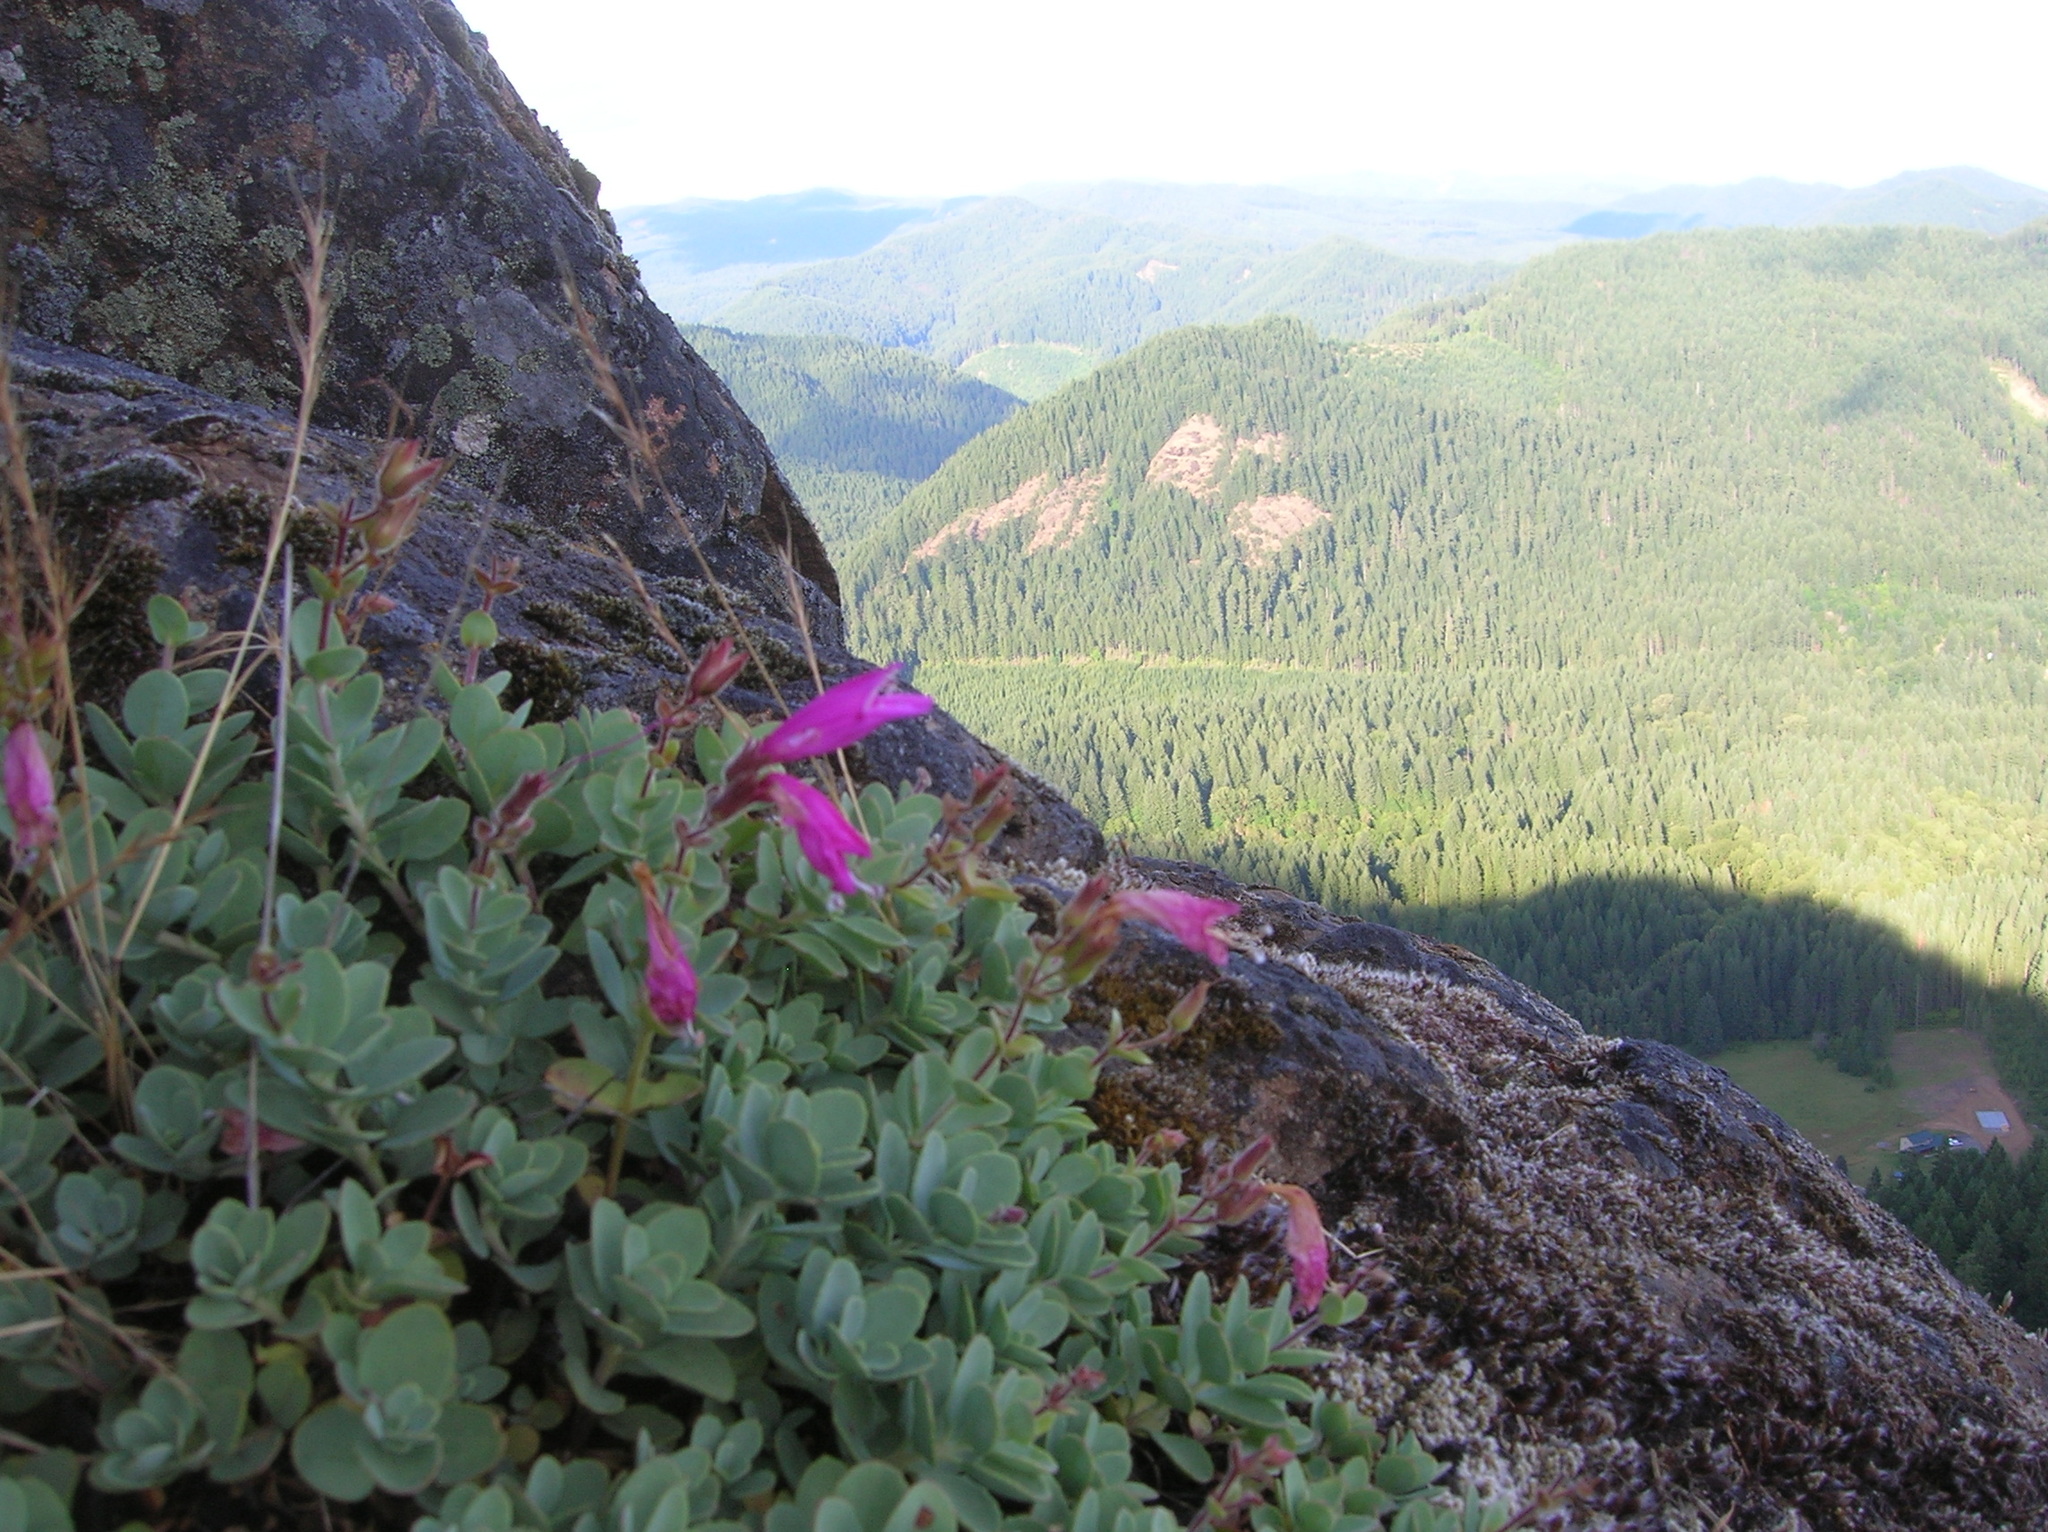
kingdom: Plantae
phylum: Tracheophyta
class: Magnoliopsida
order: Lamiales
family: Plantaginaceae
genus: Penstemon
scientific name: Penstemon rupicola
